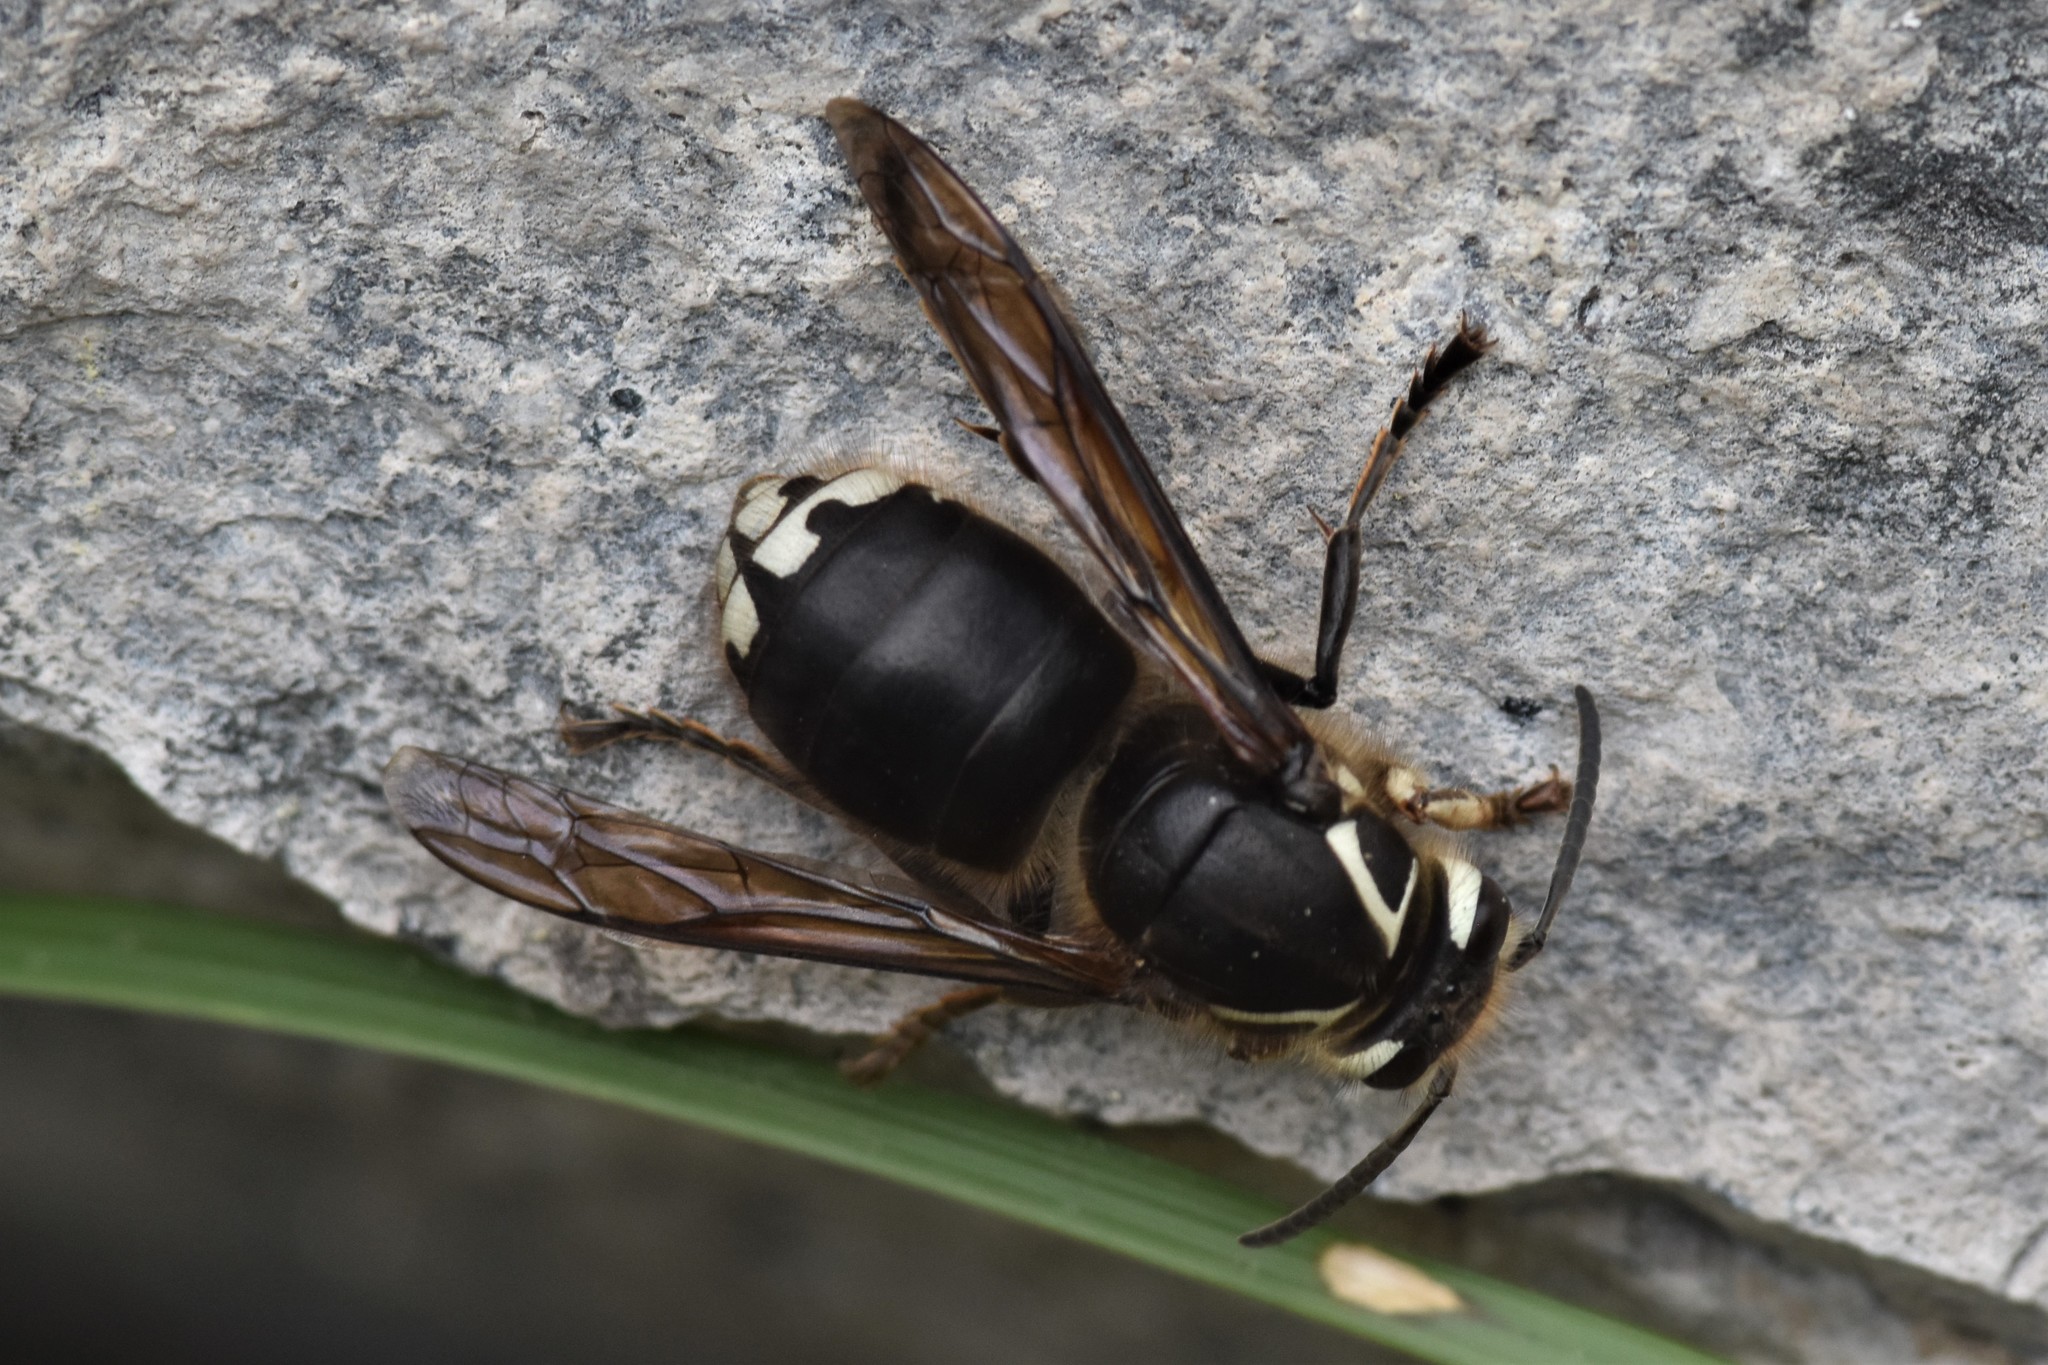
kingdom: Animalia
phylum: Arthropoda
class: Insecta
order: Hymenoptera
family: Vespidae
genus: Dolichovespula
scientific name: Dolichovespula maculata
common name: Bald-faced hornet
